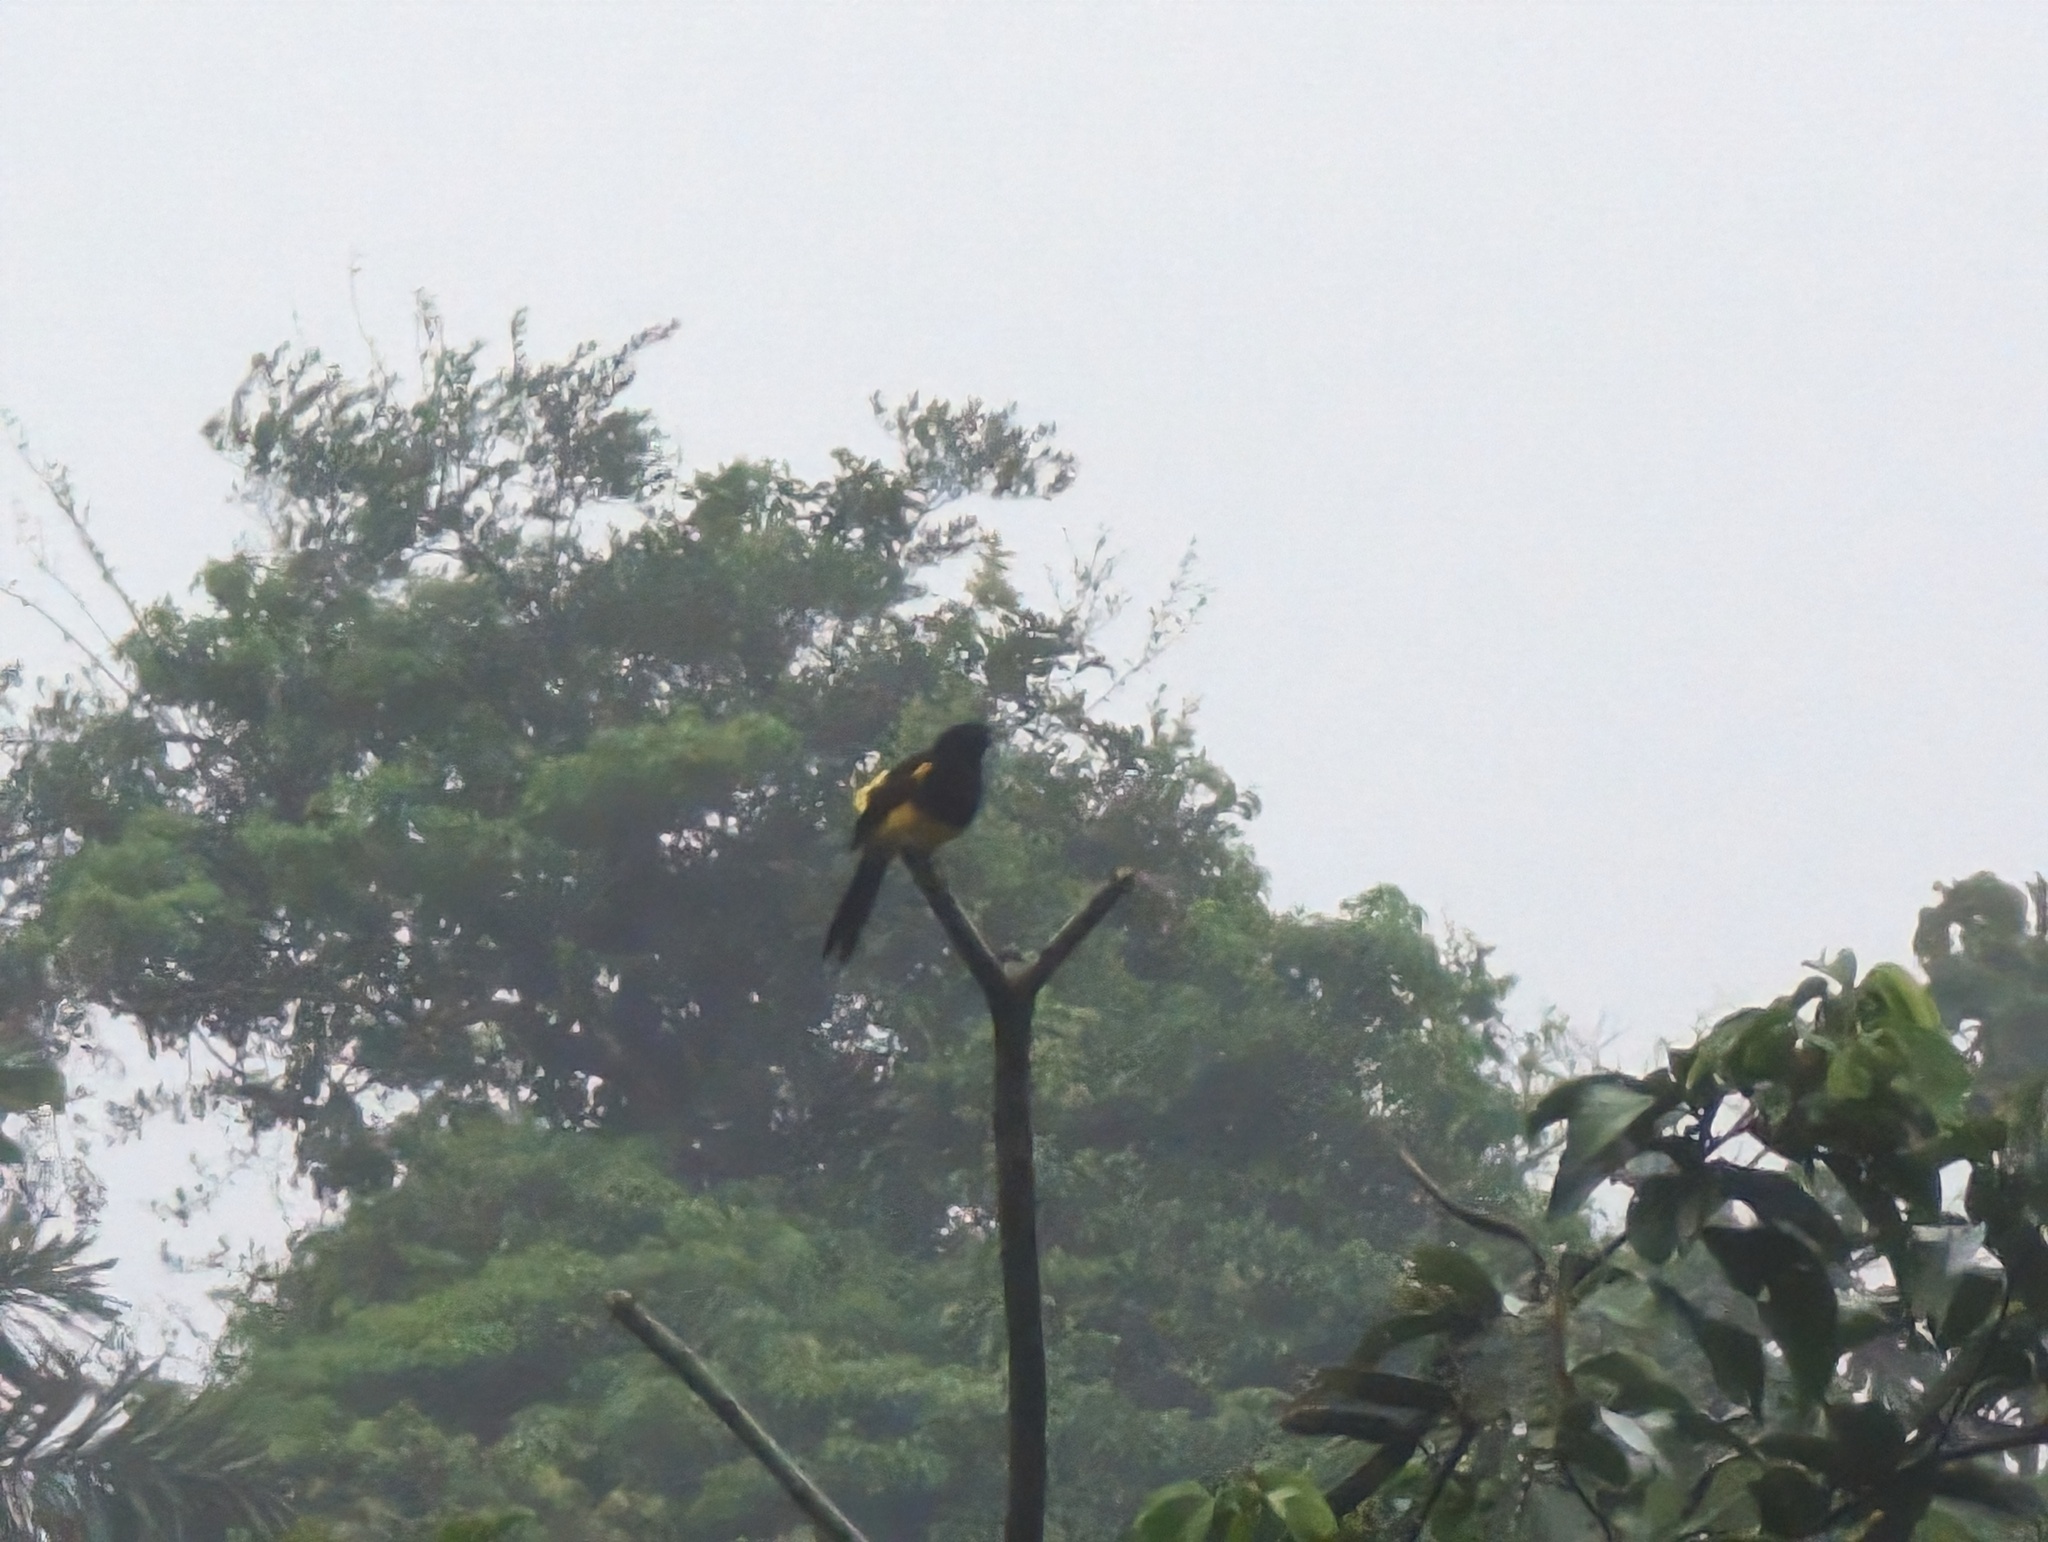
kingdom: Animalia
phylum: Chordata
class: Aves
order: Passeriformes
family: Icteridae
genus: Icterus
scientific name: Icterus prosthemelas
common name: Black-cowled oriole
